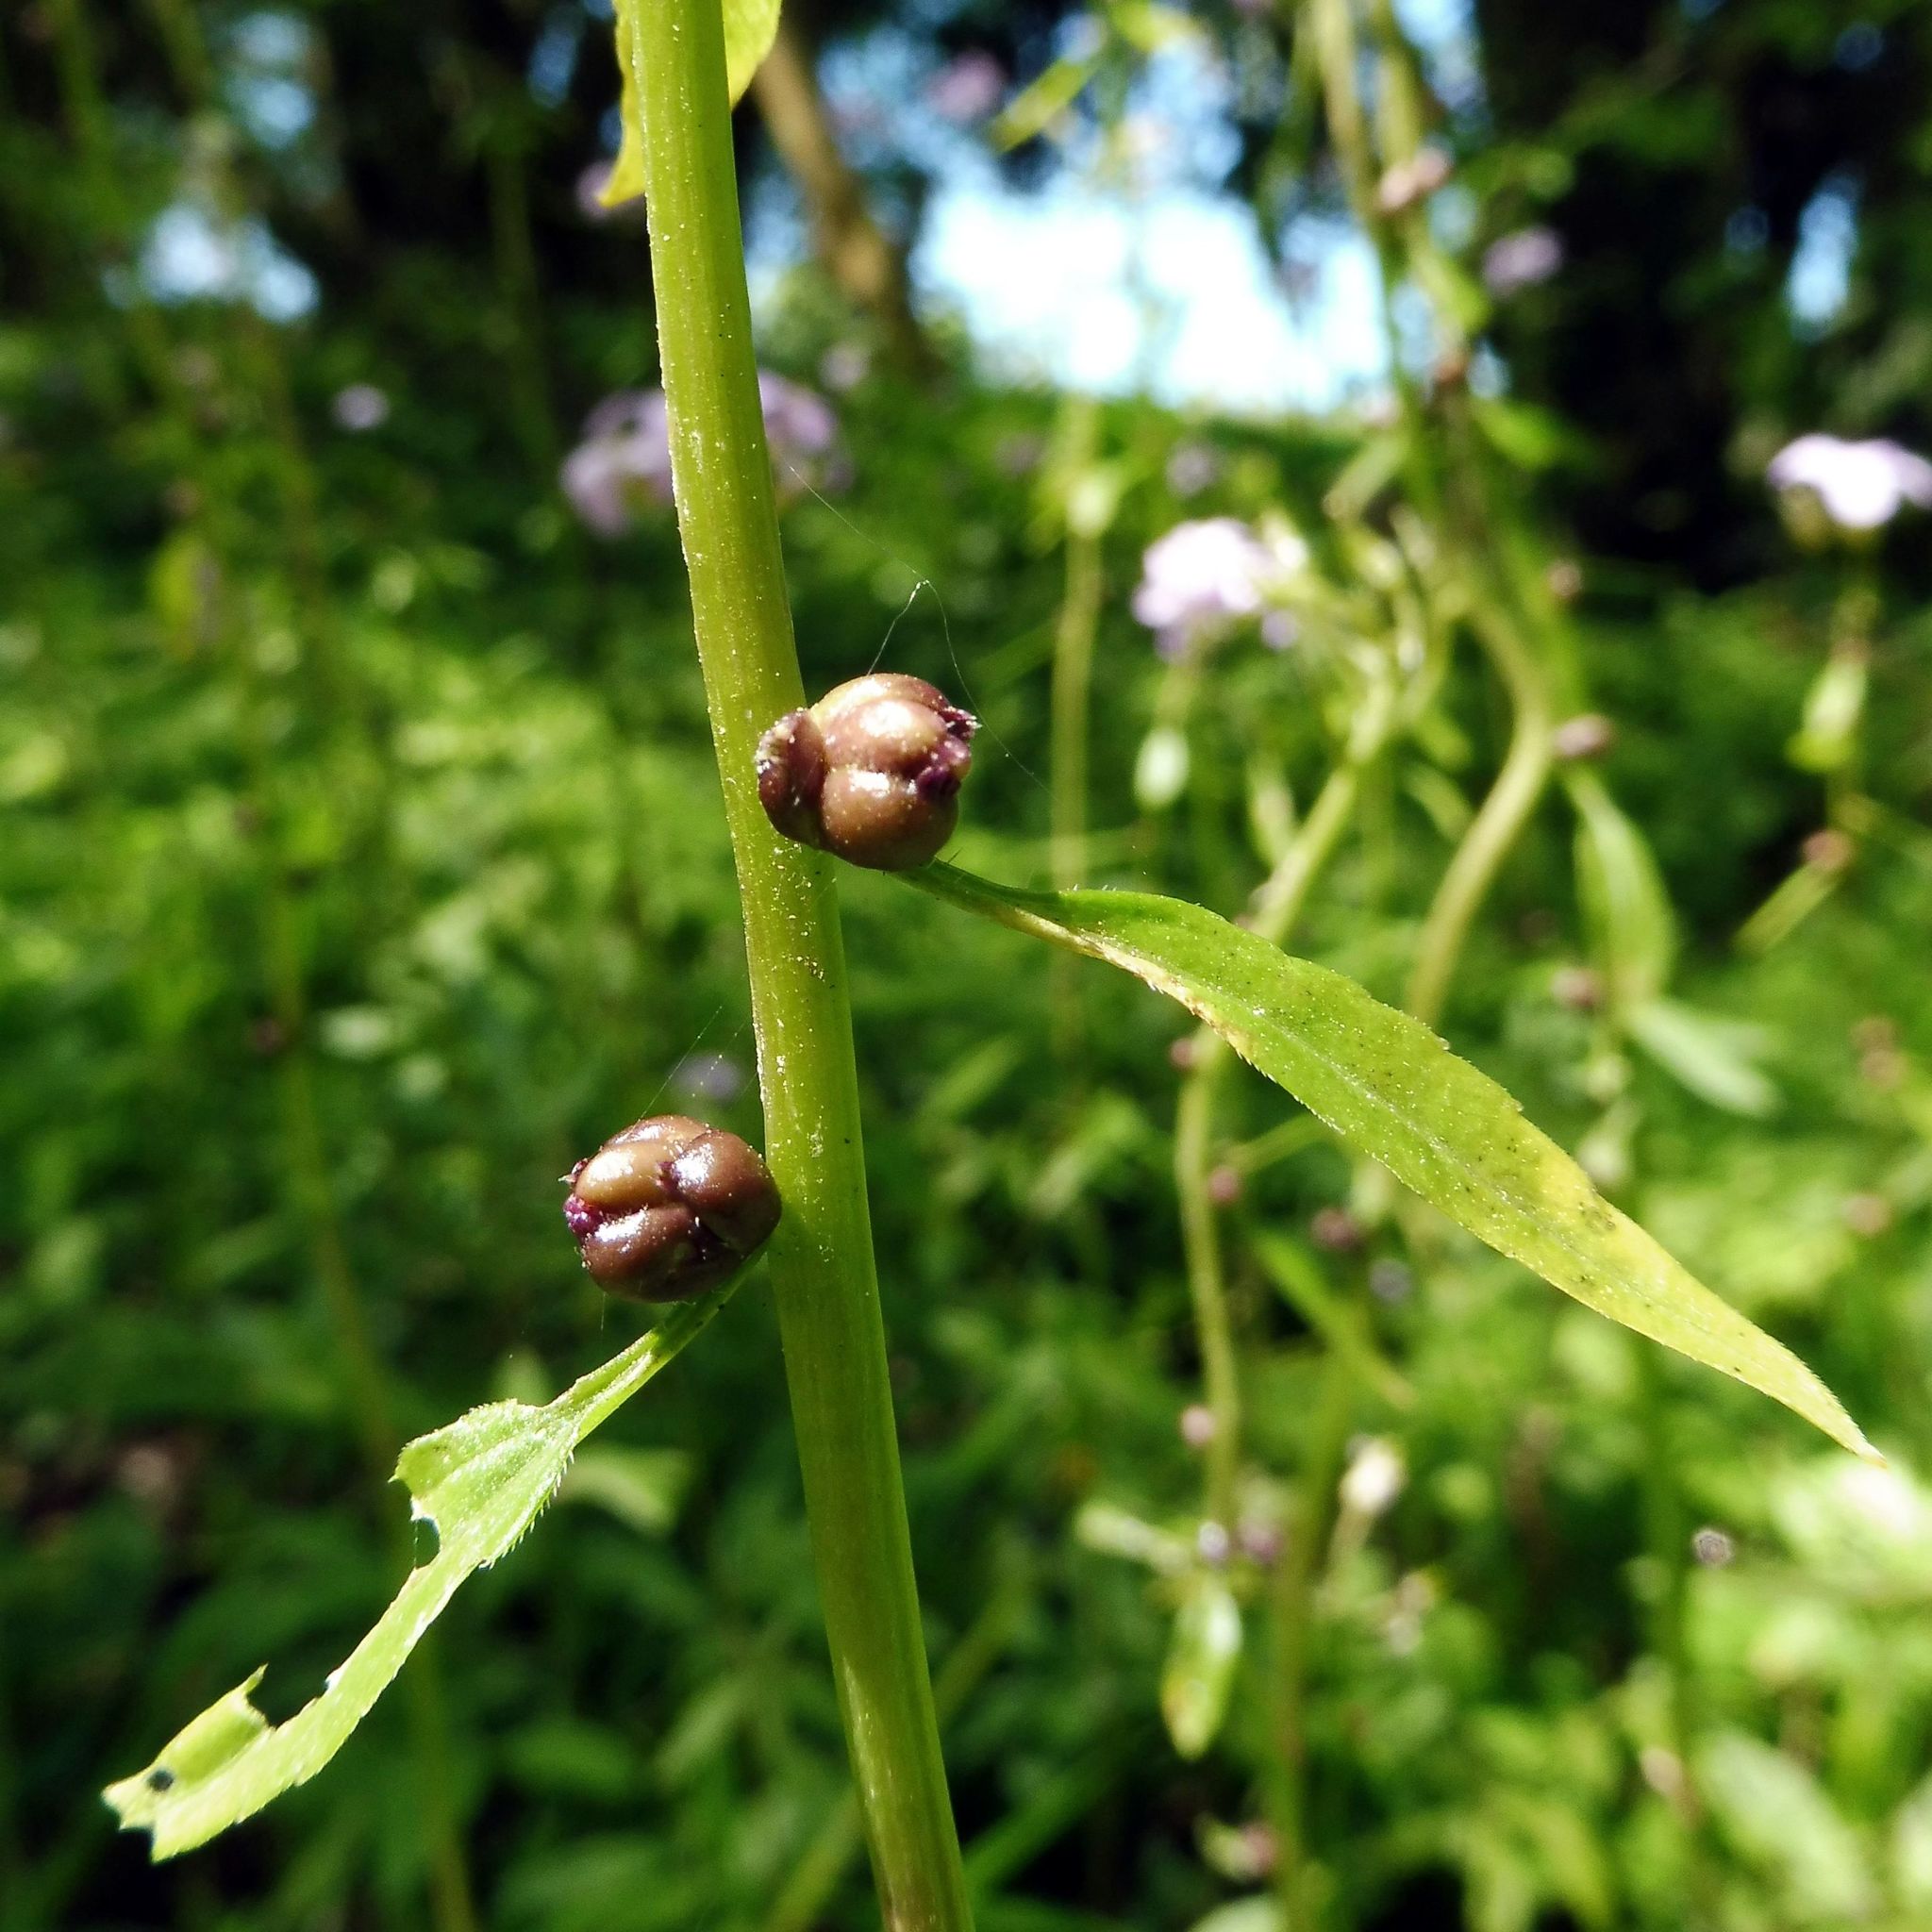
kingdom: Plantae
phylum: Tracheophyta
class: Magnoliopsida
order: Brassicales
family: Brassicaceae
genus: Cardamine
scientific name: Cardamine bulbifera
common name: Coralroot bittercress
